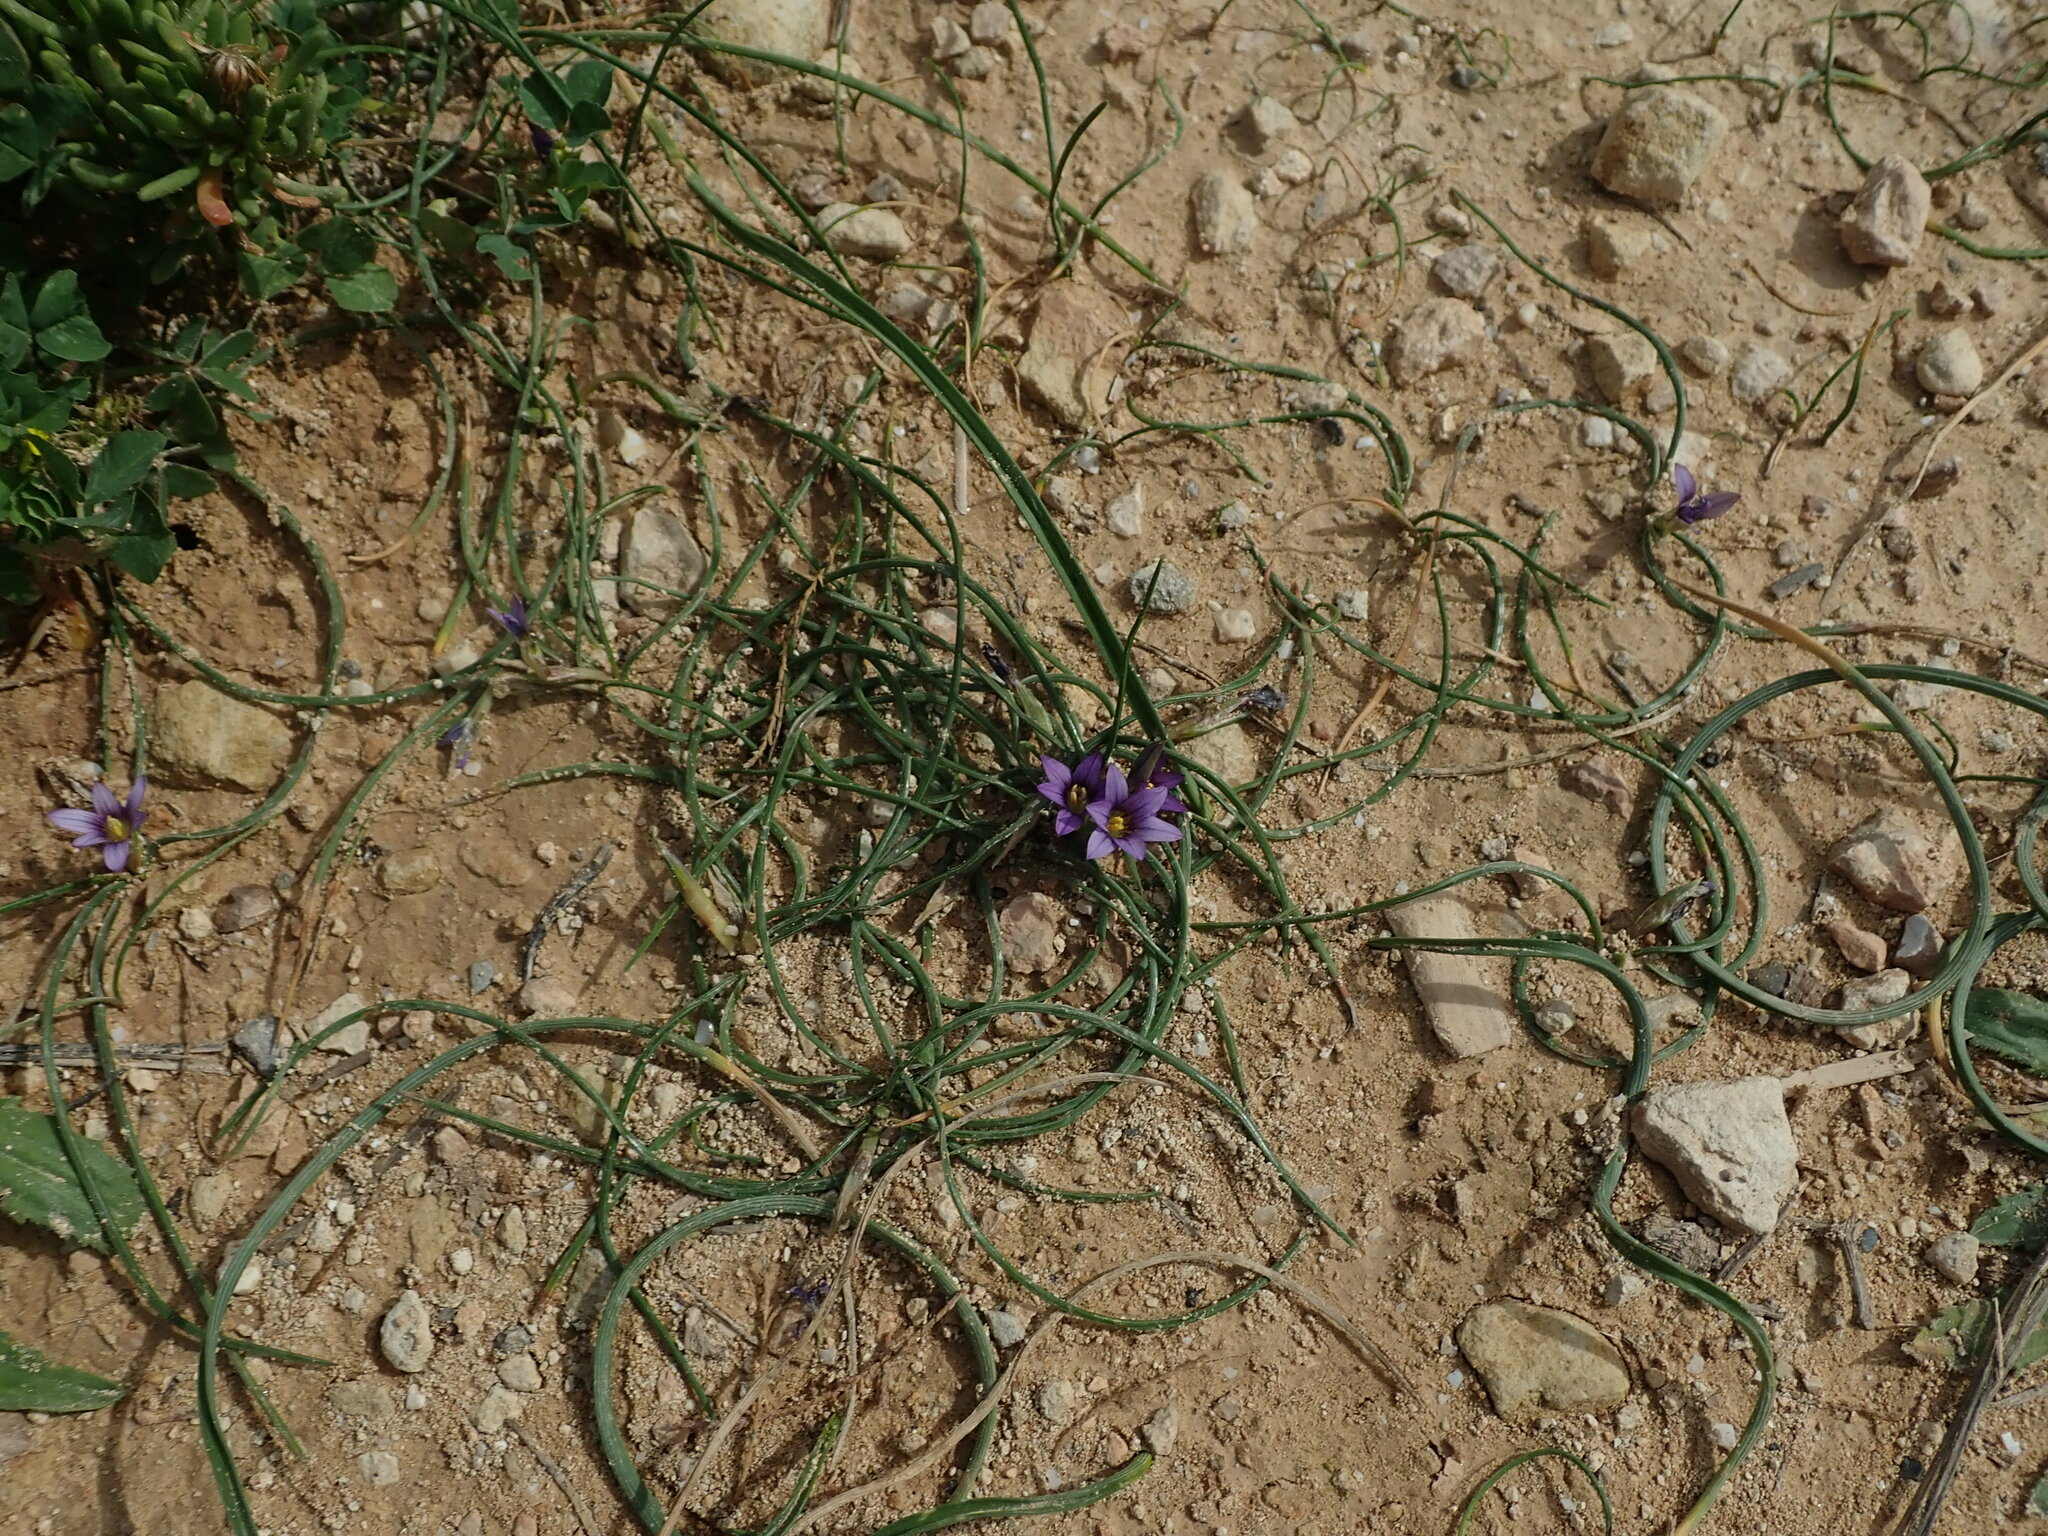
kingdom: Plantae
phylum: Tracheophyta
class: Liliopsida
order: Asparagales
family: Iridaceae
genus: Romulea
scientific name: Romulea variicolor
